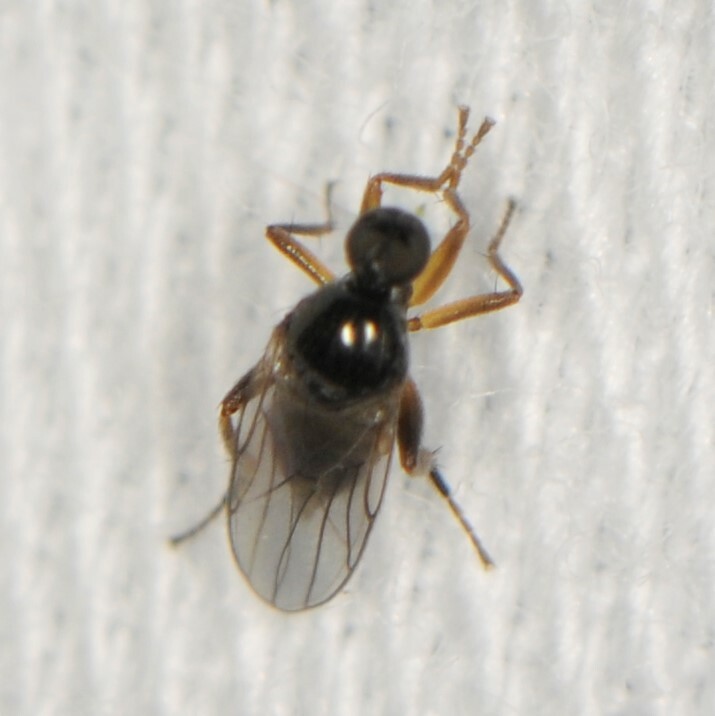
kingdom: Animalia
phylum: Arthropoda
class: Insecta
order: Diptera
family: Hybotidae
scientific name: Hybotidae
